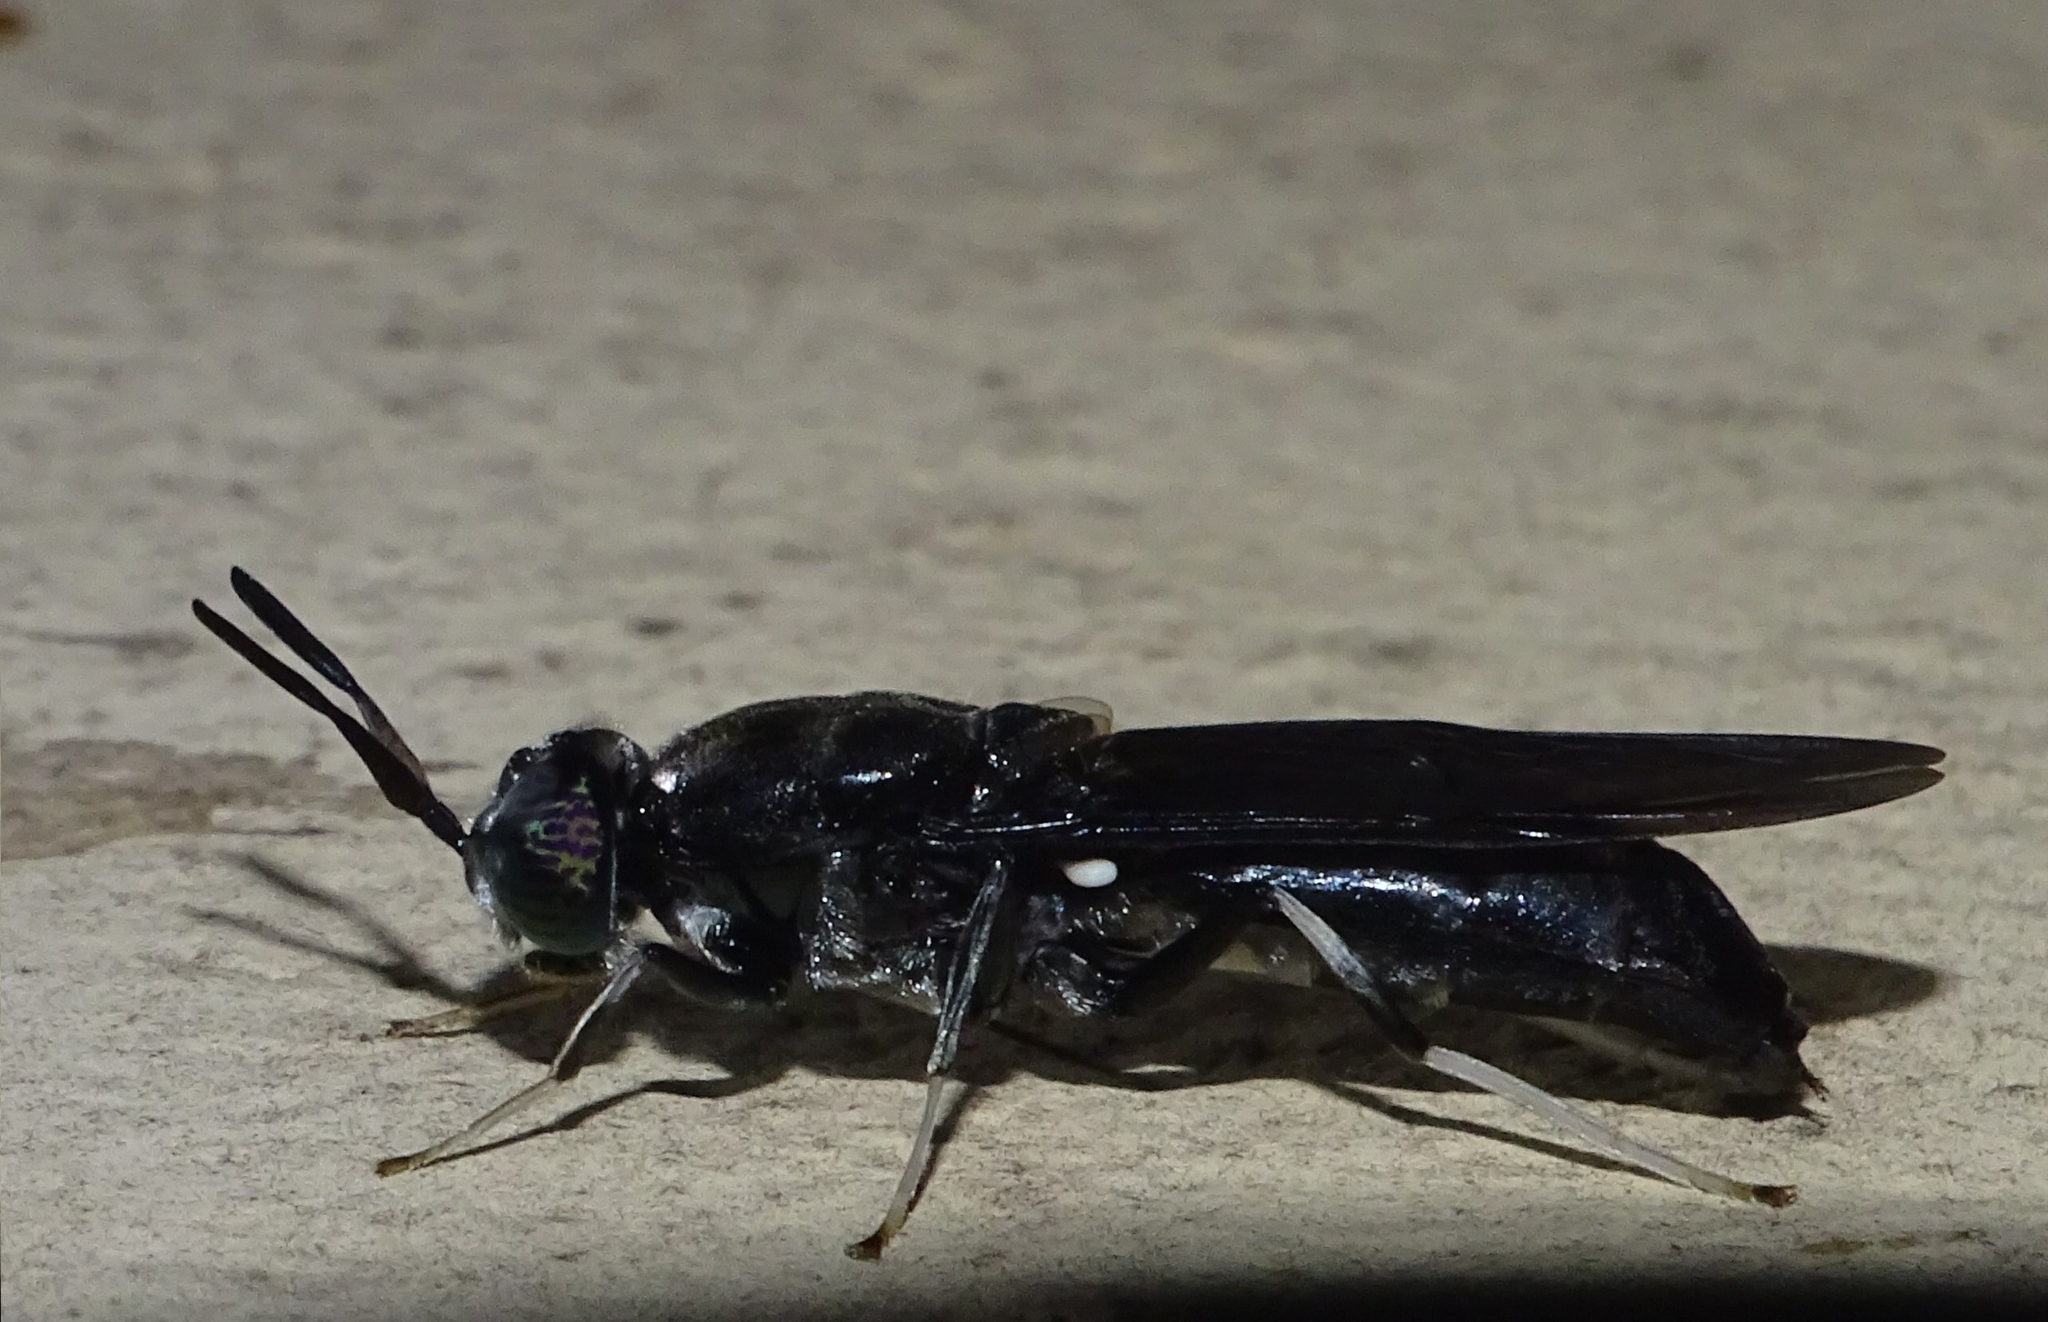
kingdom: Animalia
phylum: Arthropoda
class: Insecta
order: Diptera
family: Stratiomyidae
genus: Hermetia
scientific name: Hermetia illucens
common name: Black soldier fly
